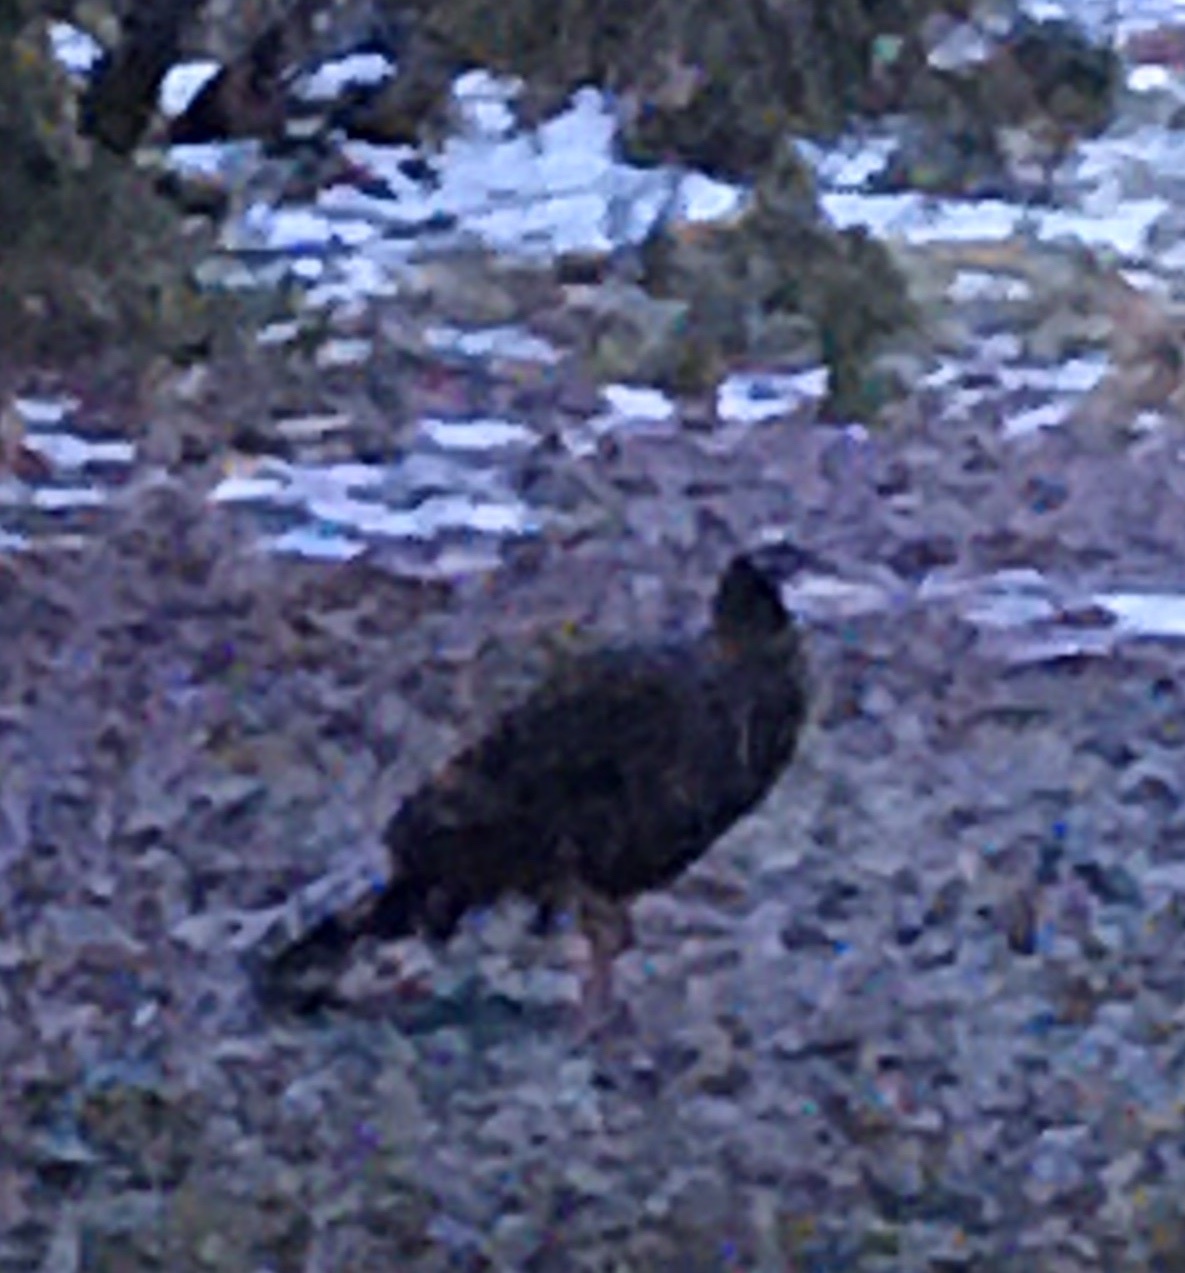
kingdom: Animalia
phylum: Chordata
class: Aves
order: Galliformes
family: Phasianidae
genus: Meleagris
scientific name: Meleagris gallopavo
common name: Wild turkey
